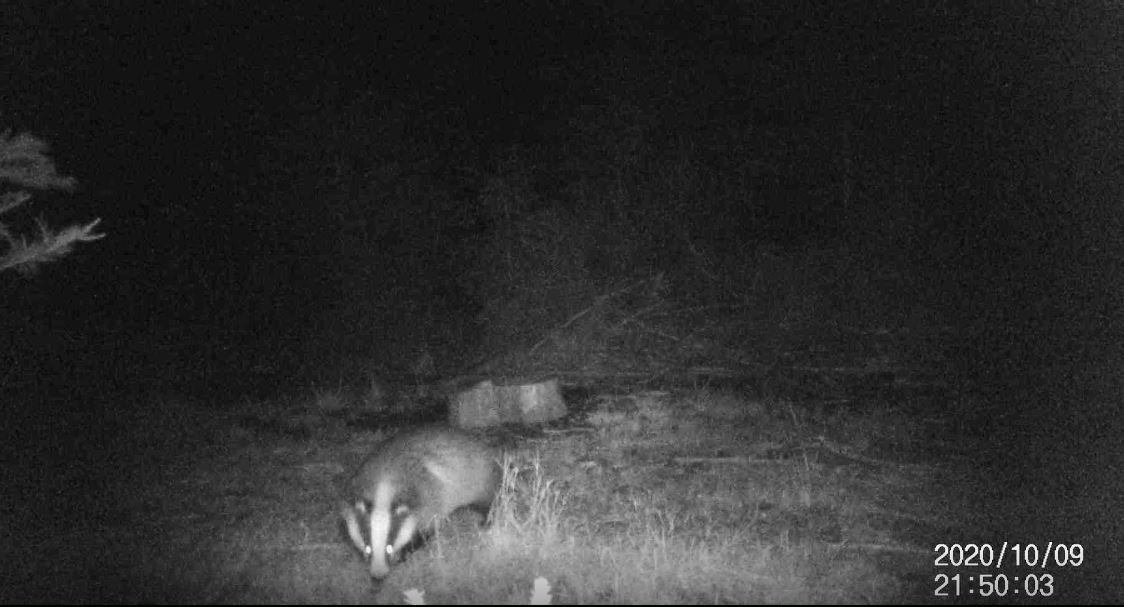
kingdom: Animalia
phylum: Chordata
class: Mammalia
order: Carnivora
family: Mustelidae
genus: Meles
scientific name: Meles meles
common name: Eurasian badger
